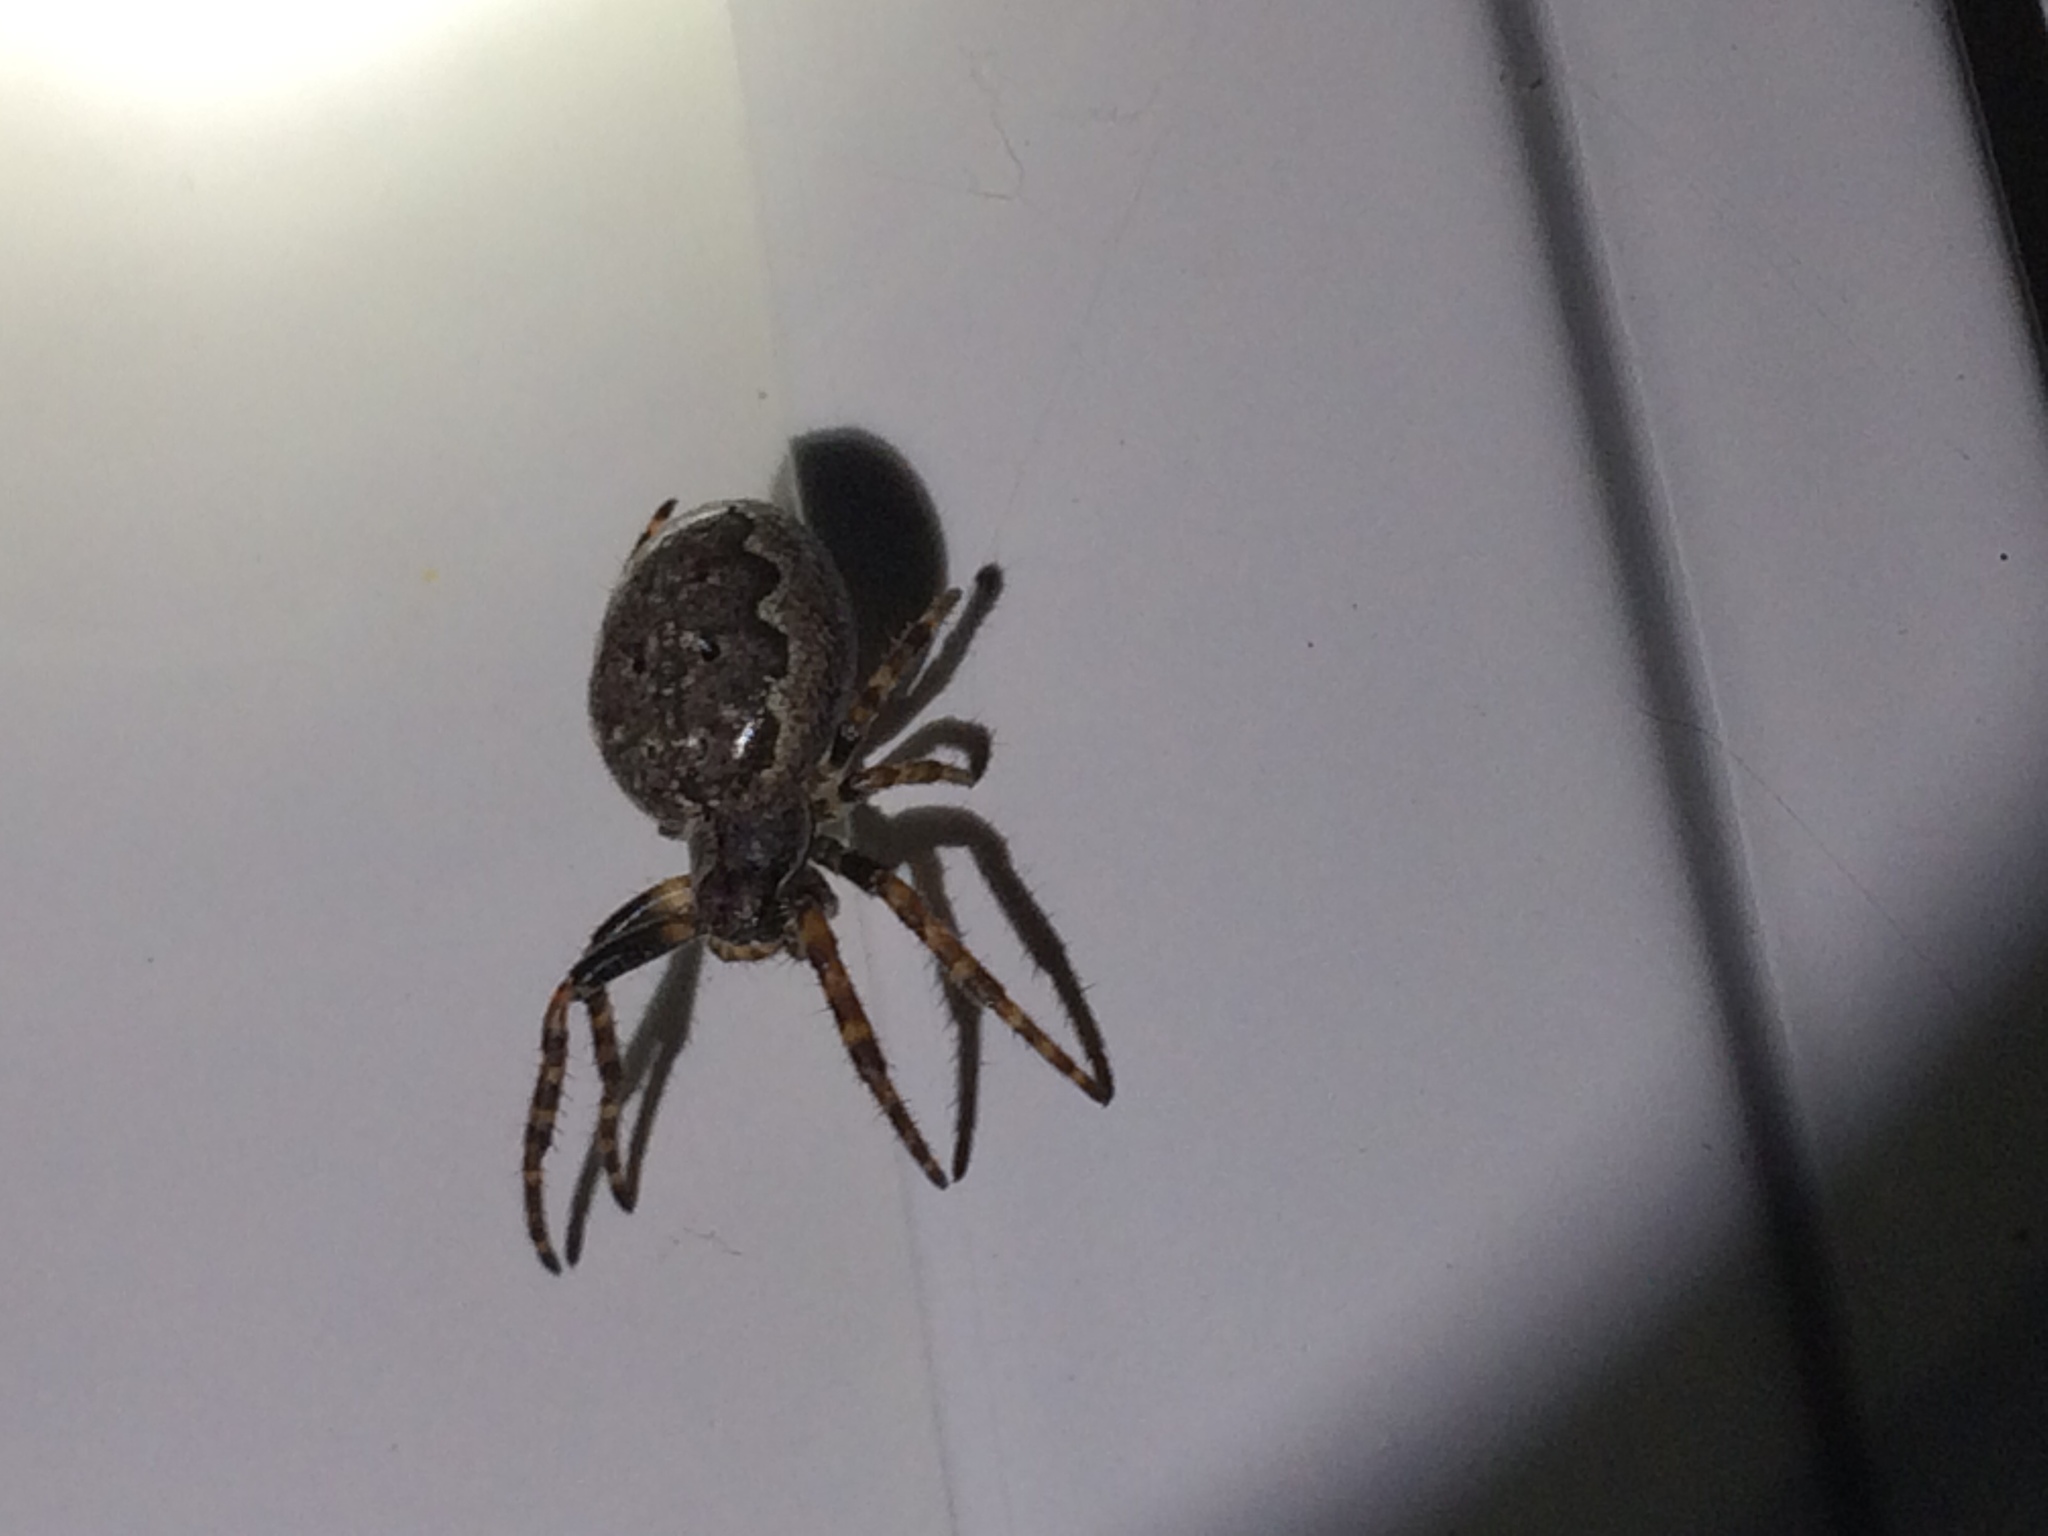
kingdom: Animalia
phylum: Arthropoda
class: Arachnida
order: Araneae
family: Araneidae
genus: Nuctenea
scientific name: Nuctenea umbratica
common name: Toad spider
